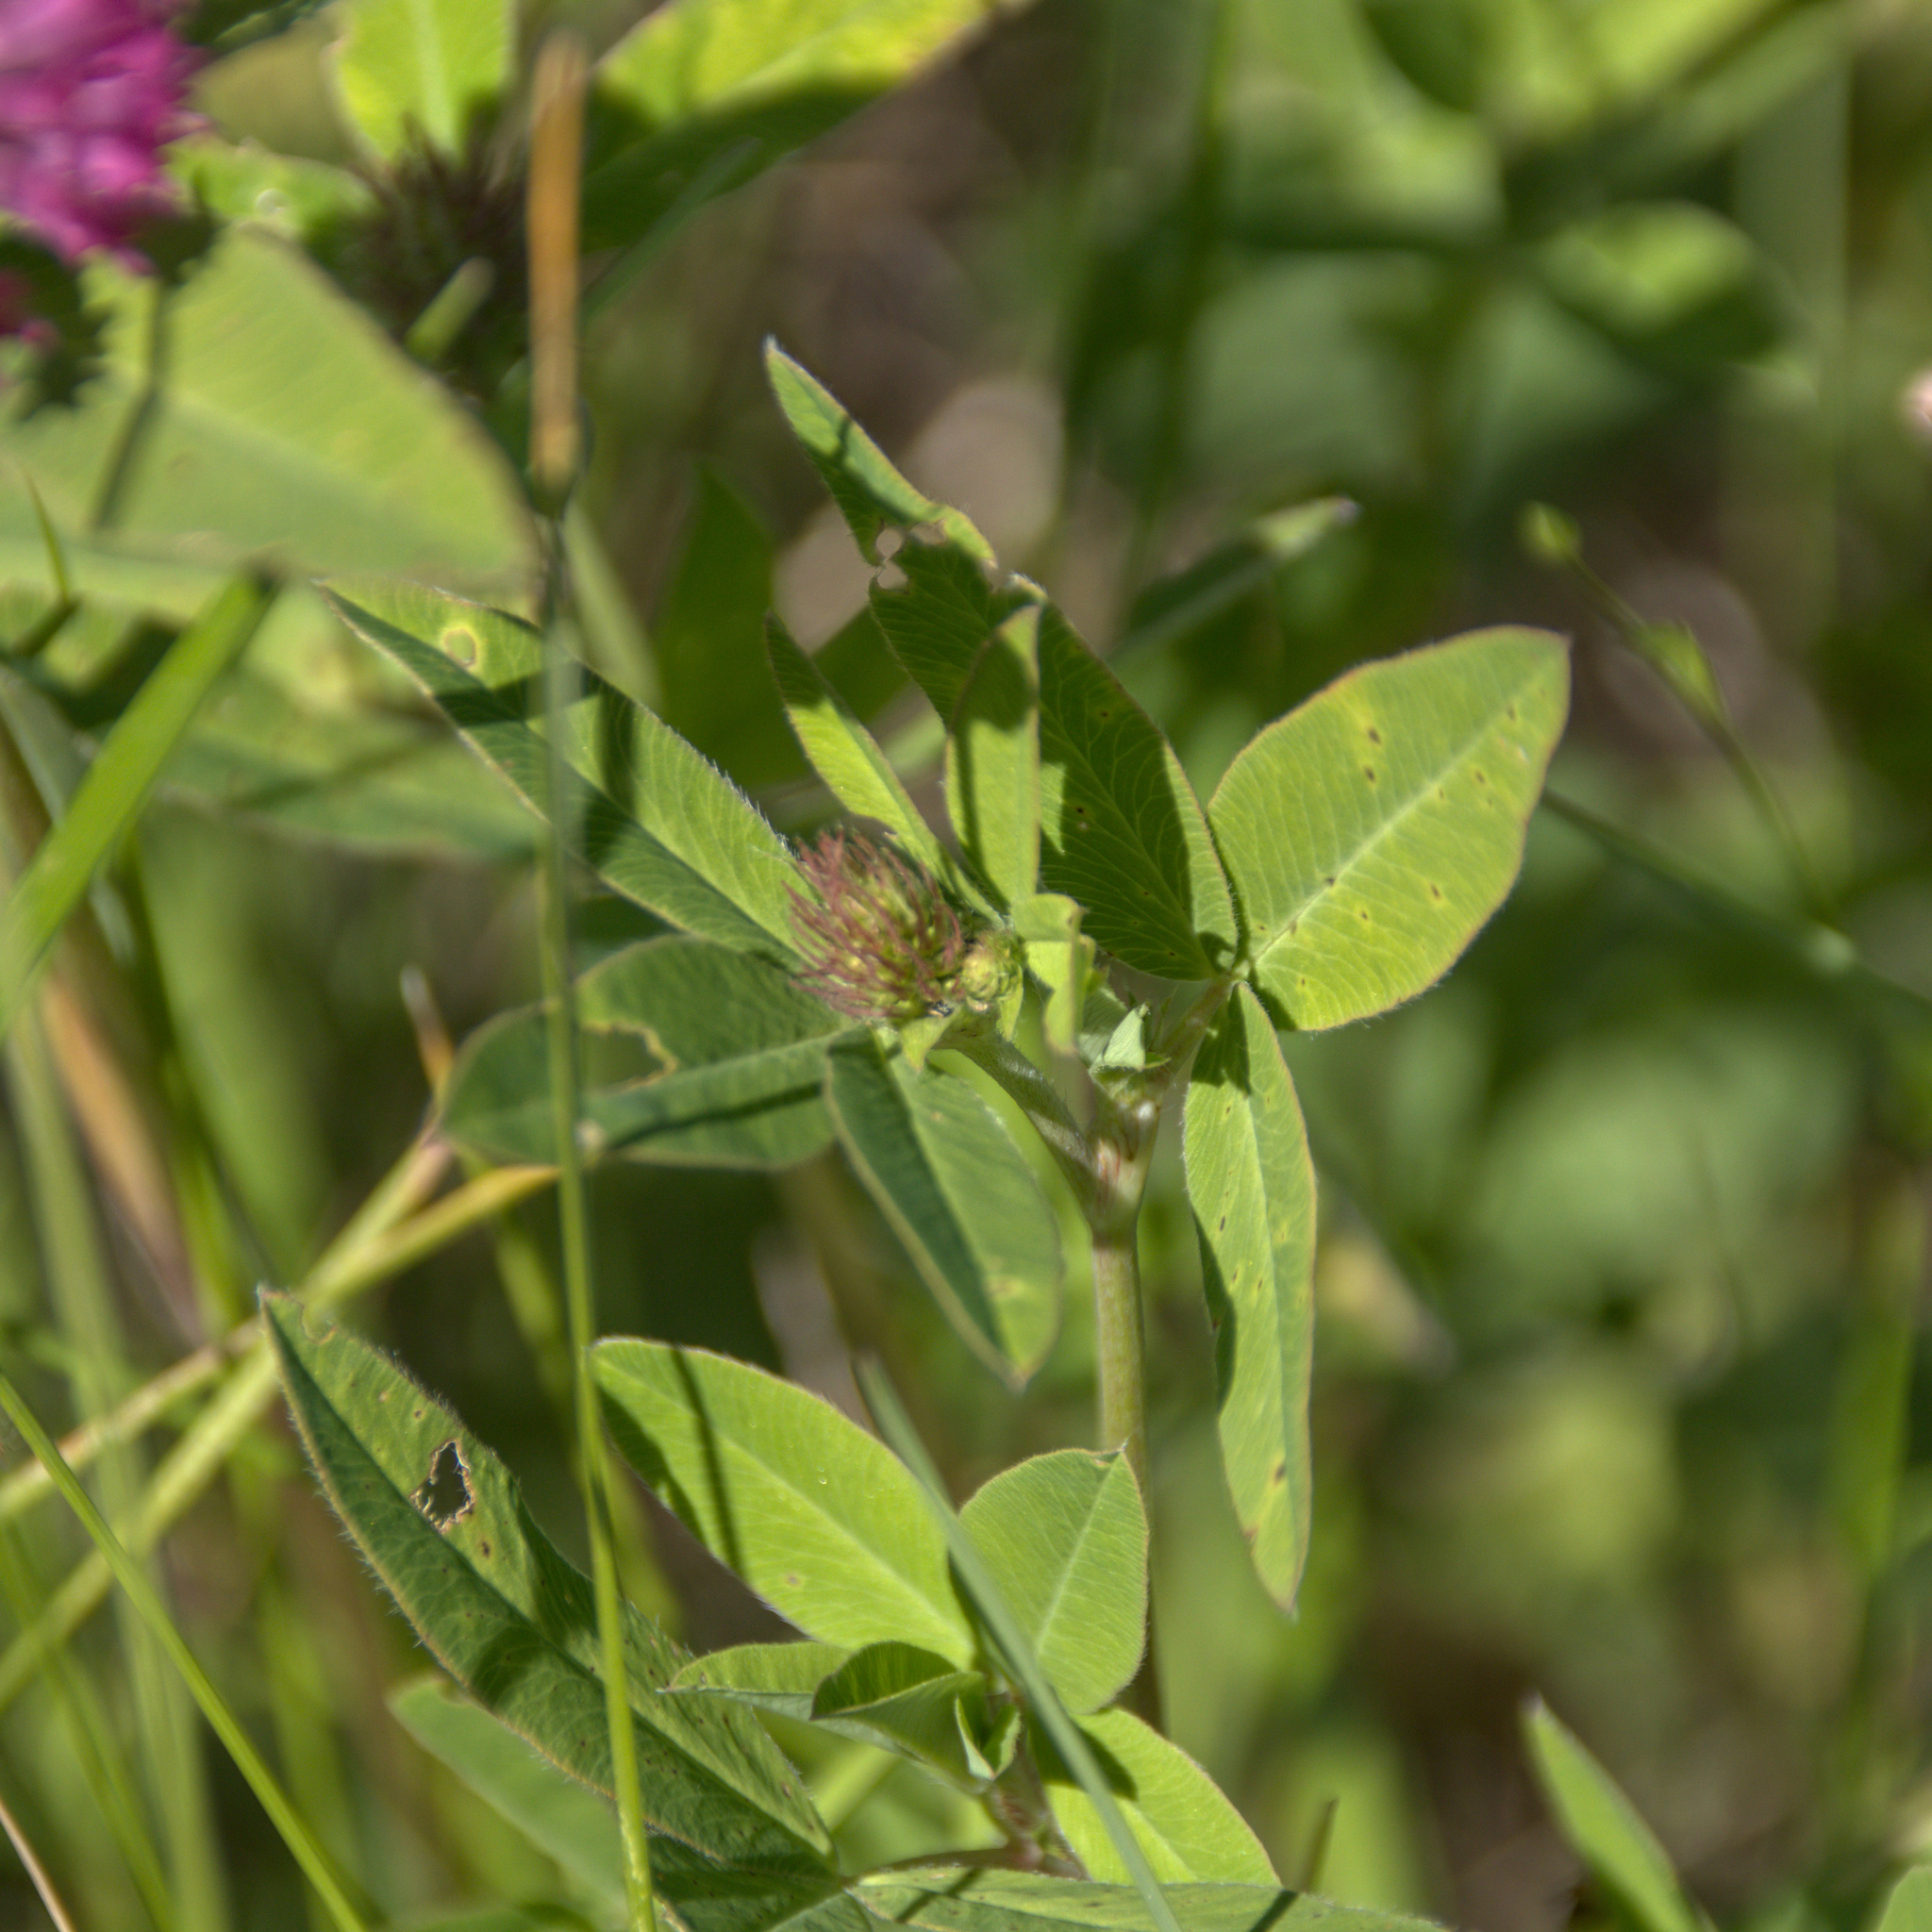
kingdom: Plantae
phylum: Tracheophyta
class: Magnoliopsida
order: Fabales
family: Fabaceae
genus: Trifolium
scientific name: Trifolium medium
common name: Zigzag clover
